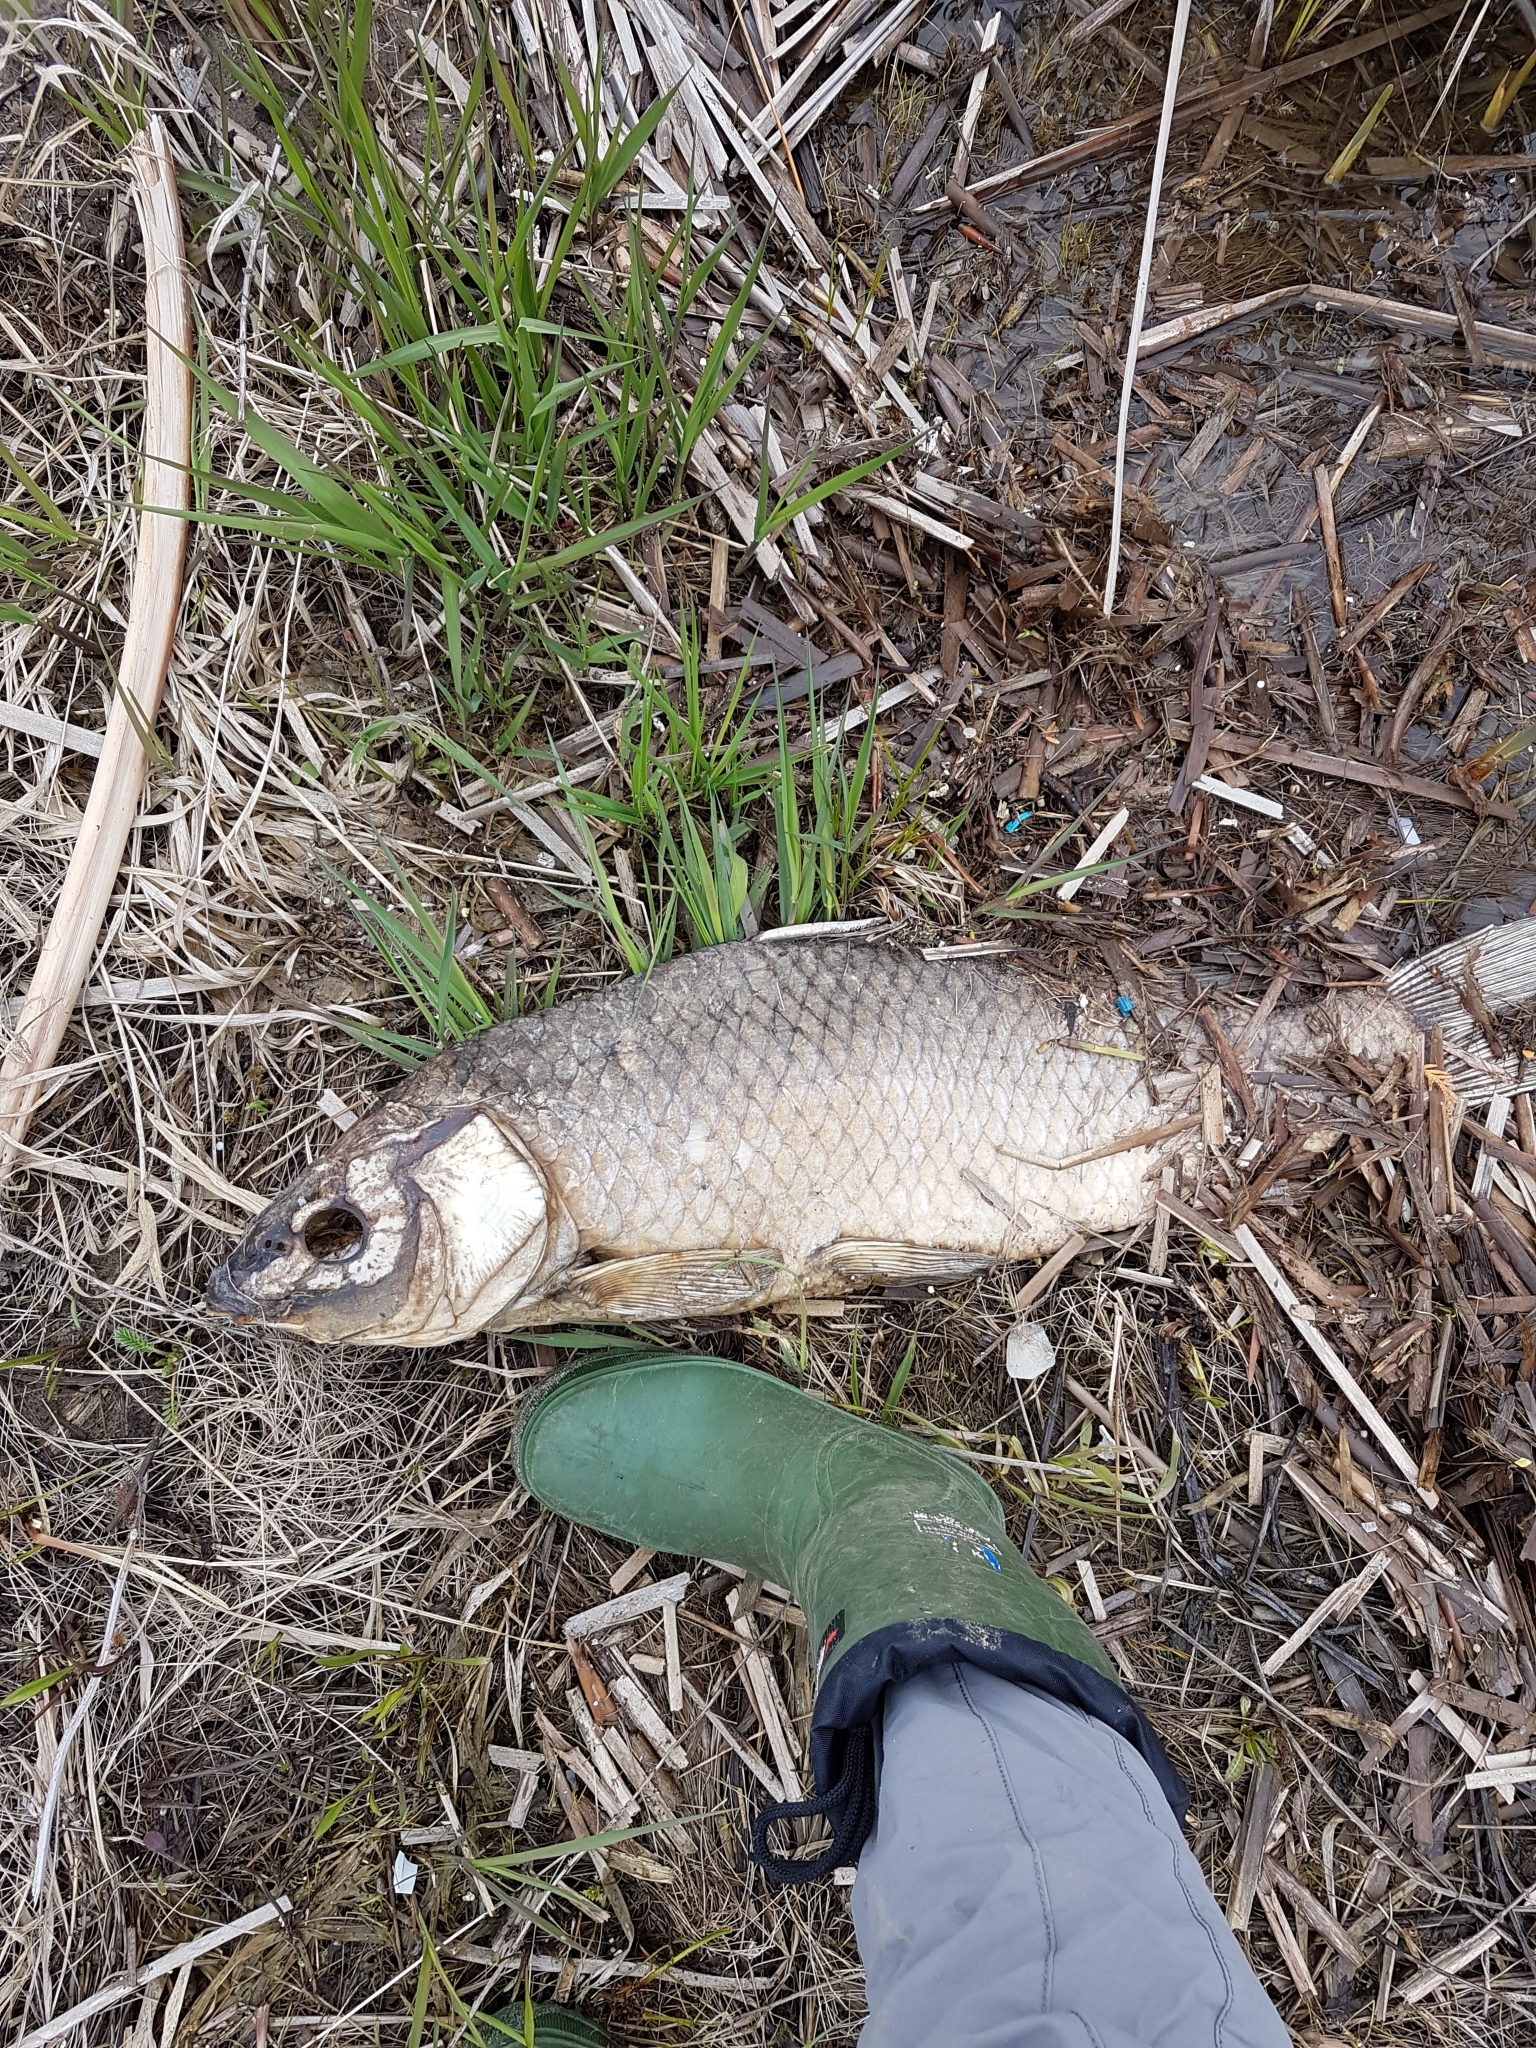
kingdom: Animalia
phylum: Chordata
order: Cypriniformes
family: Cyprinidae
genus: Cyprinus
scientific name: Cyprinus carpio
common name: Common carp
